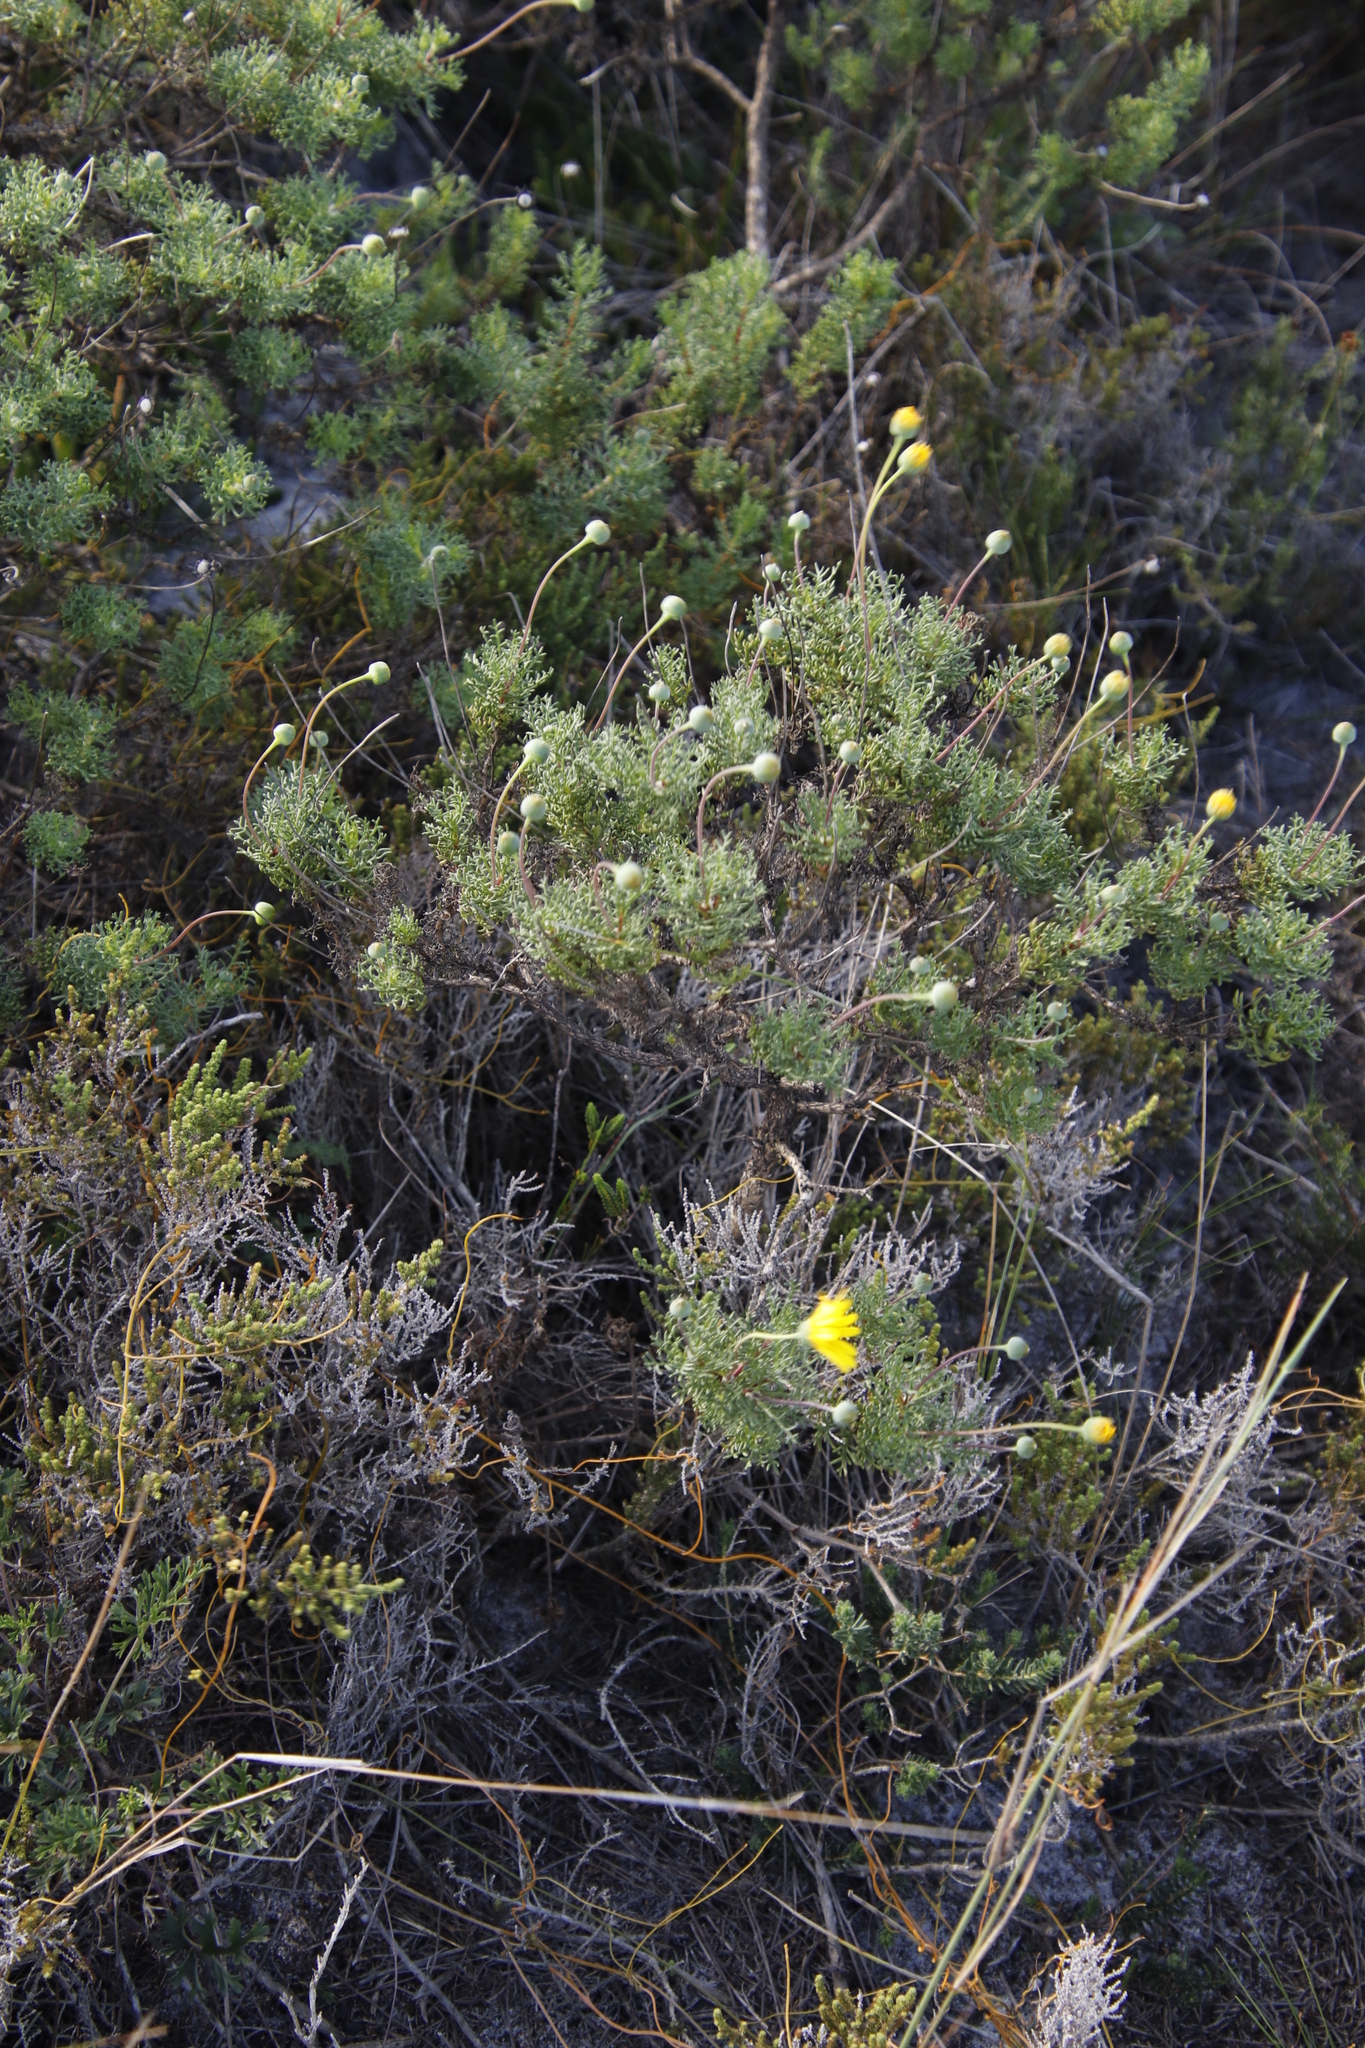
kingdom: Plantae
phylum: Tracheophyta
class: Magnoliopsida
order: Asterales
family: Asteraceae
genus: Euryops
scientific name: Euryops abrotanifolius
